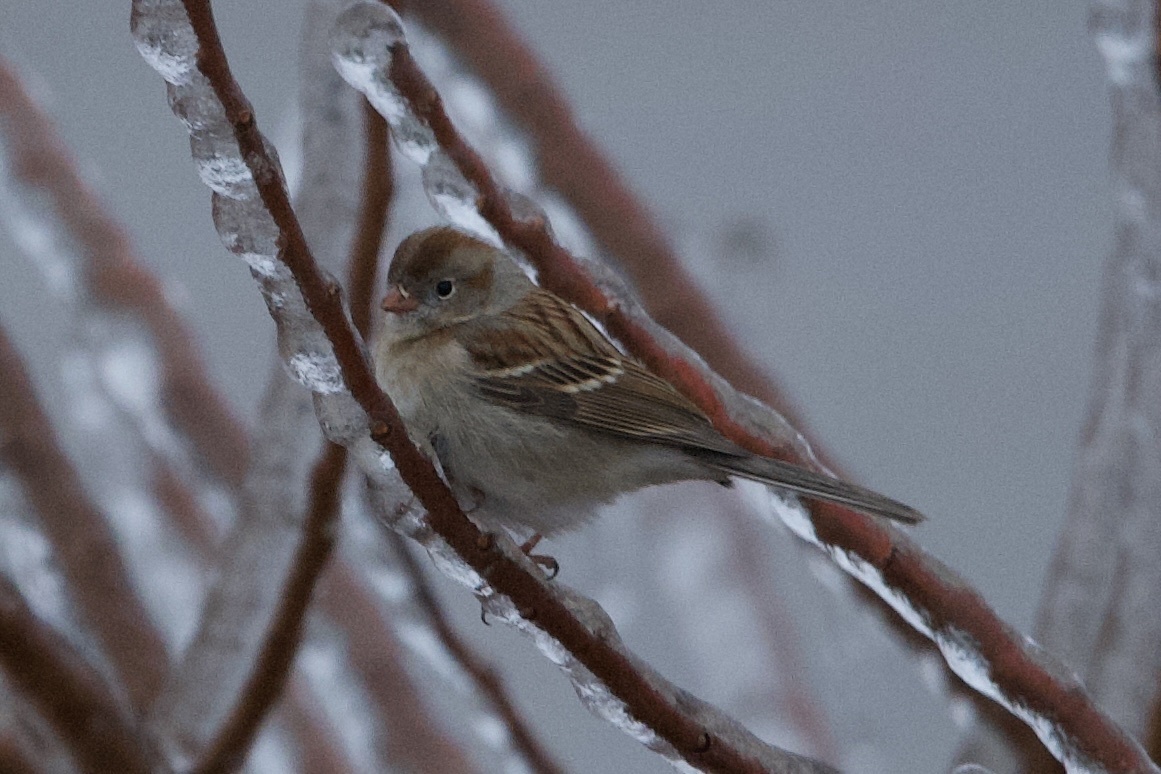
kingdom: Animalia
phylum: Chordata
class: Aves
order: Passeriformes
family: Passerellidae
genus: Spizella
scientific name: Spizella pusilla
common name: Field sparrow
